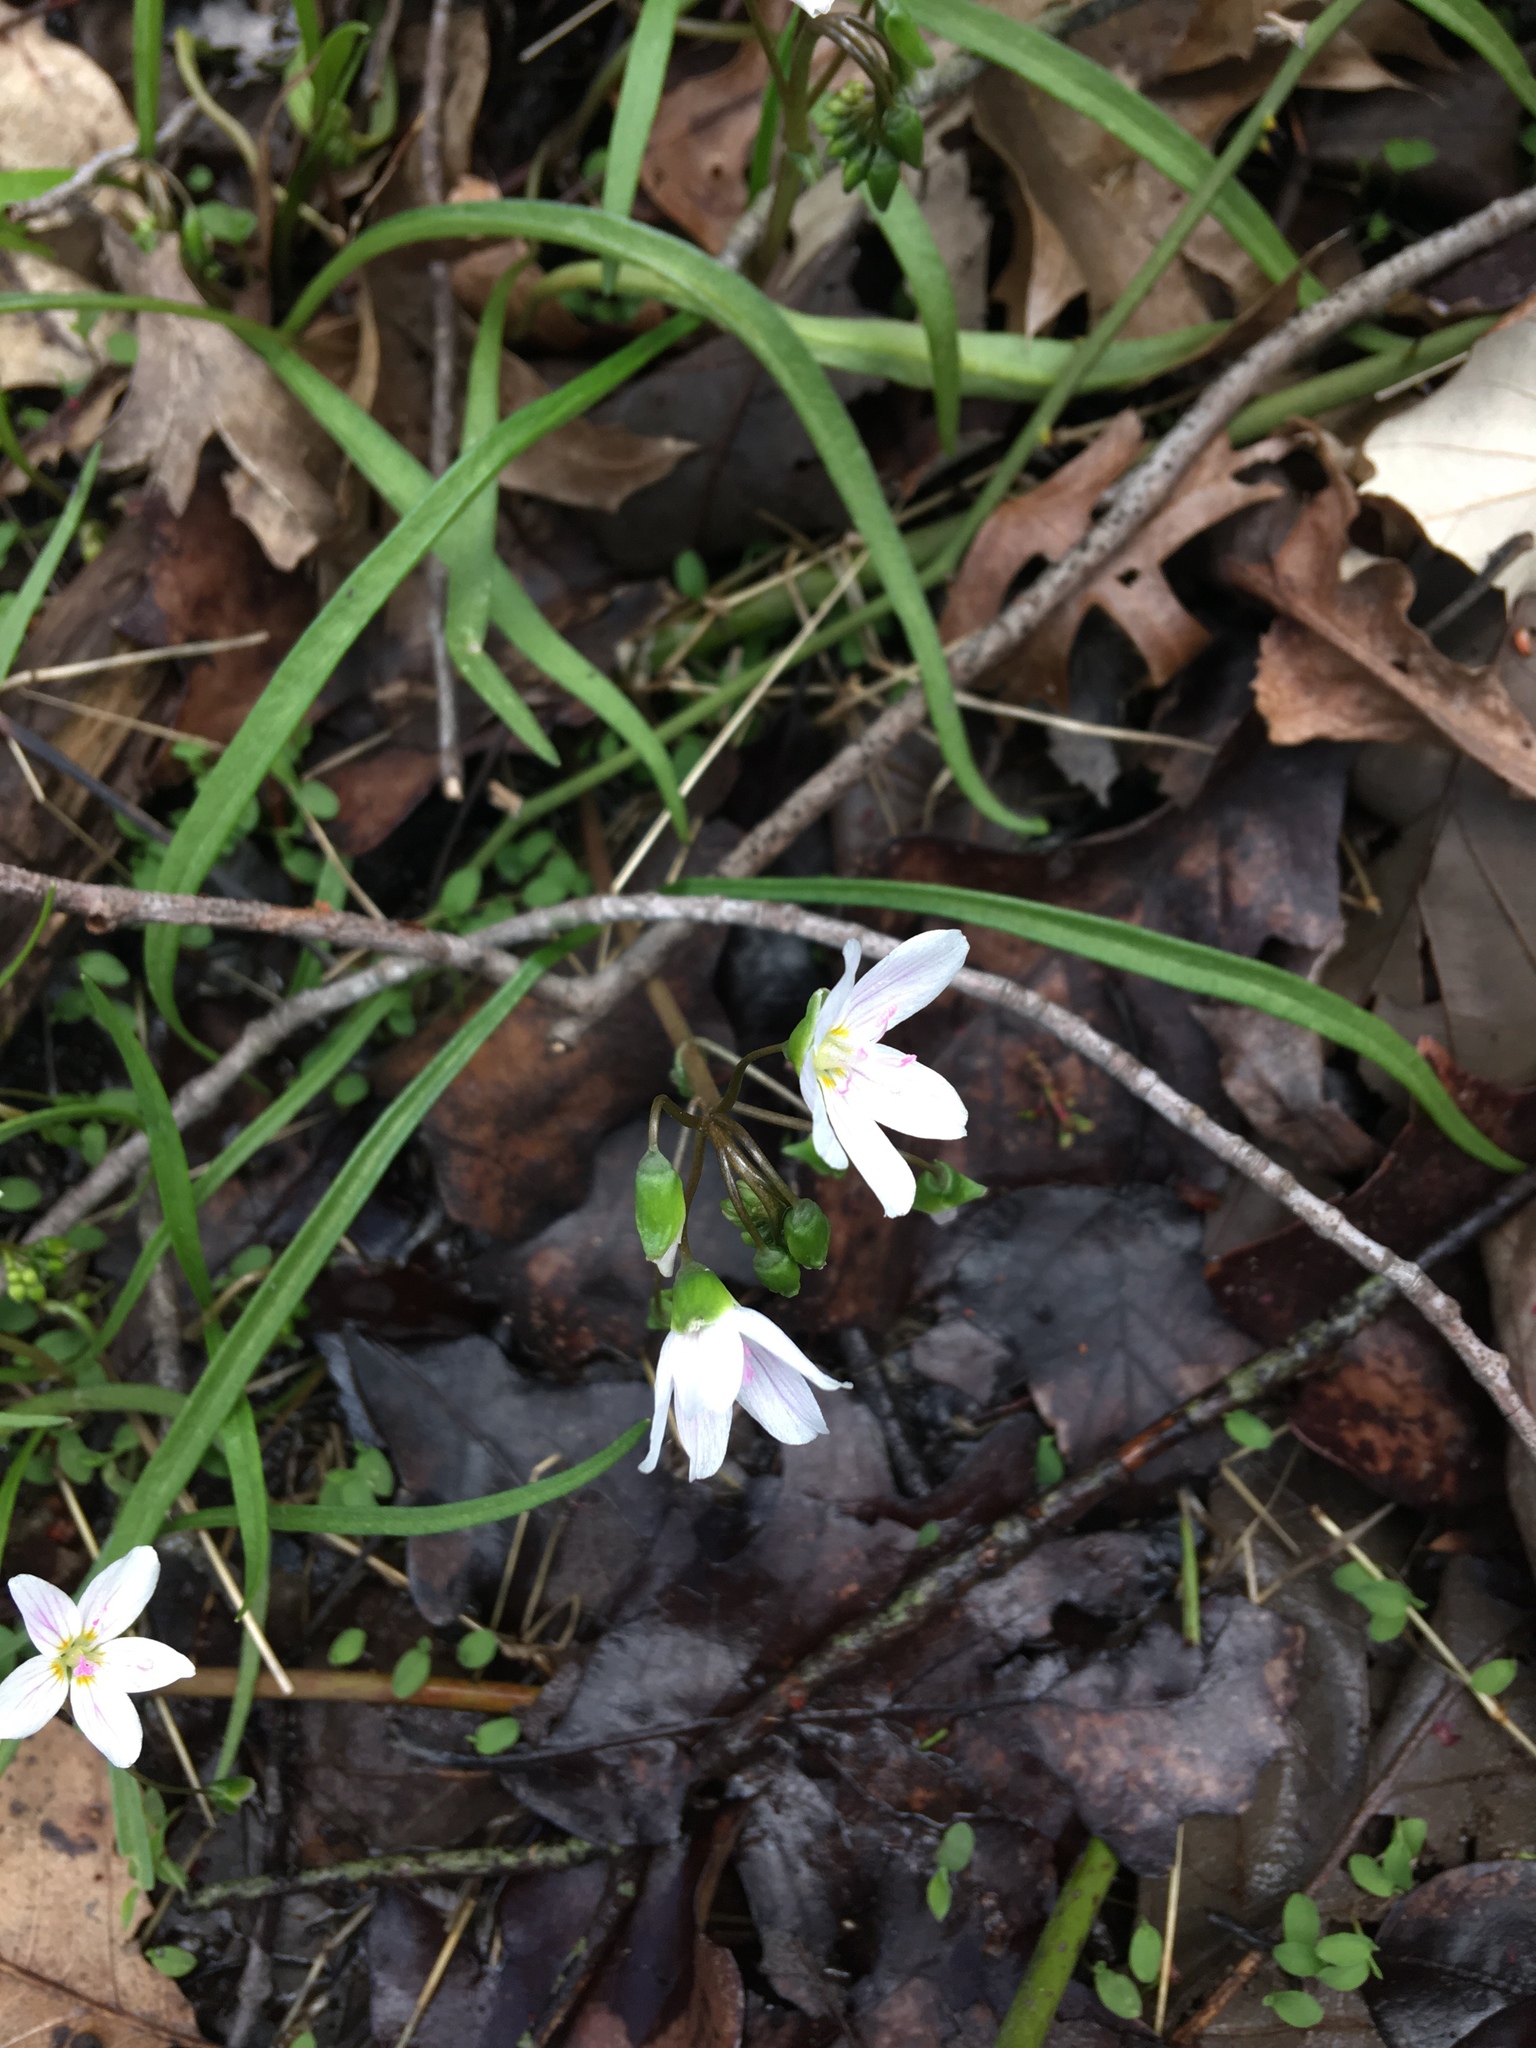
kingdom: Plantae
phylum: Tracheophyta
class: Magnoliopsida
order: Caryophyllales
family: Montiaceae
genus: Claytonia
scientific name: Claytonia virginica
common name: Virginia springbeauty
